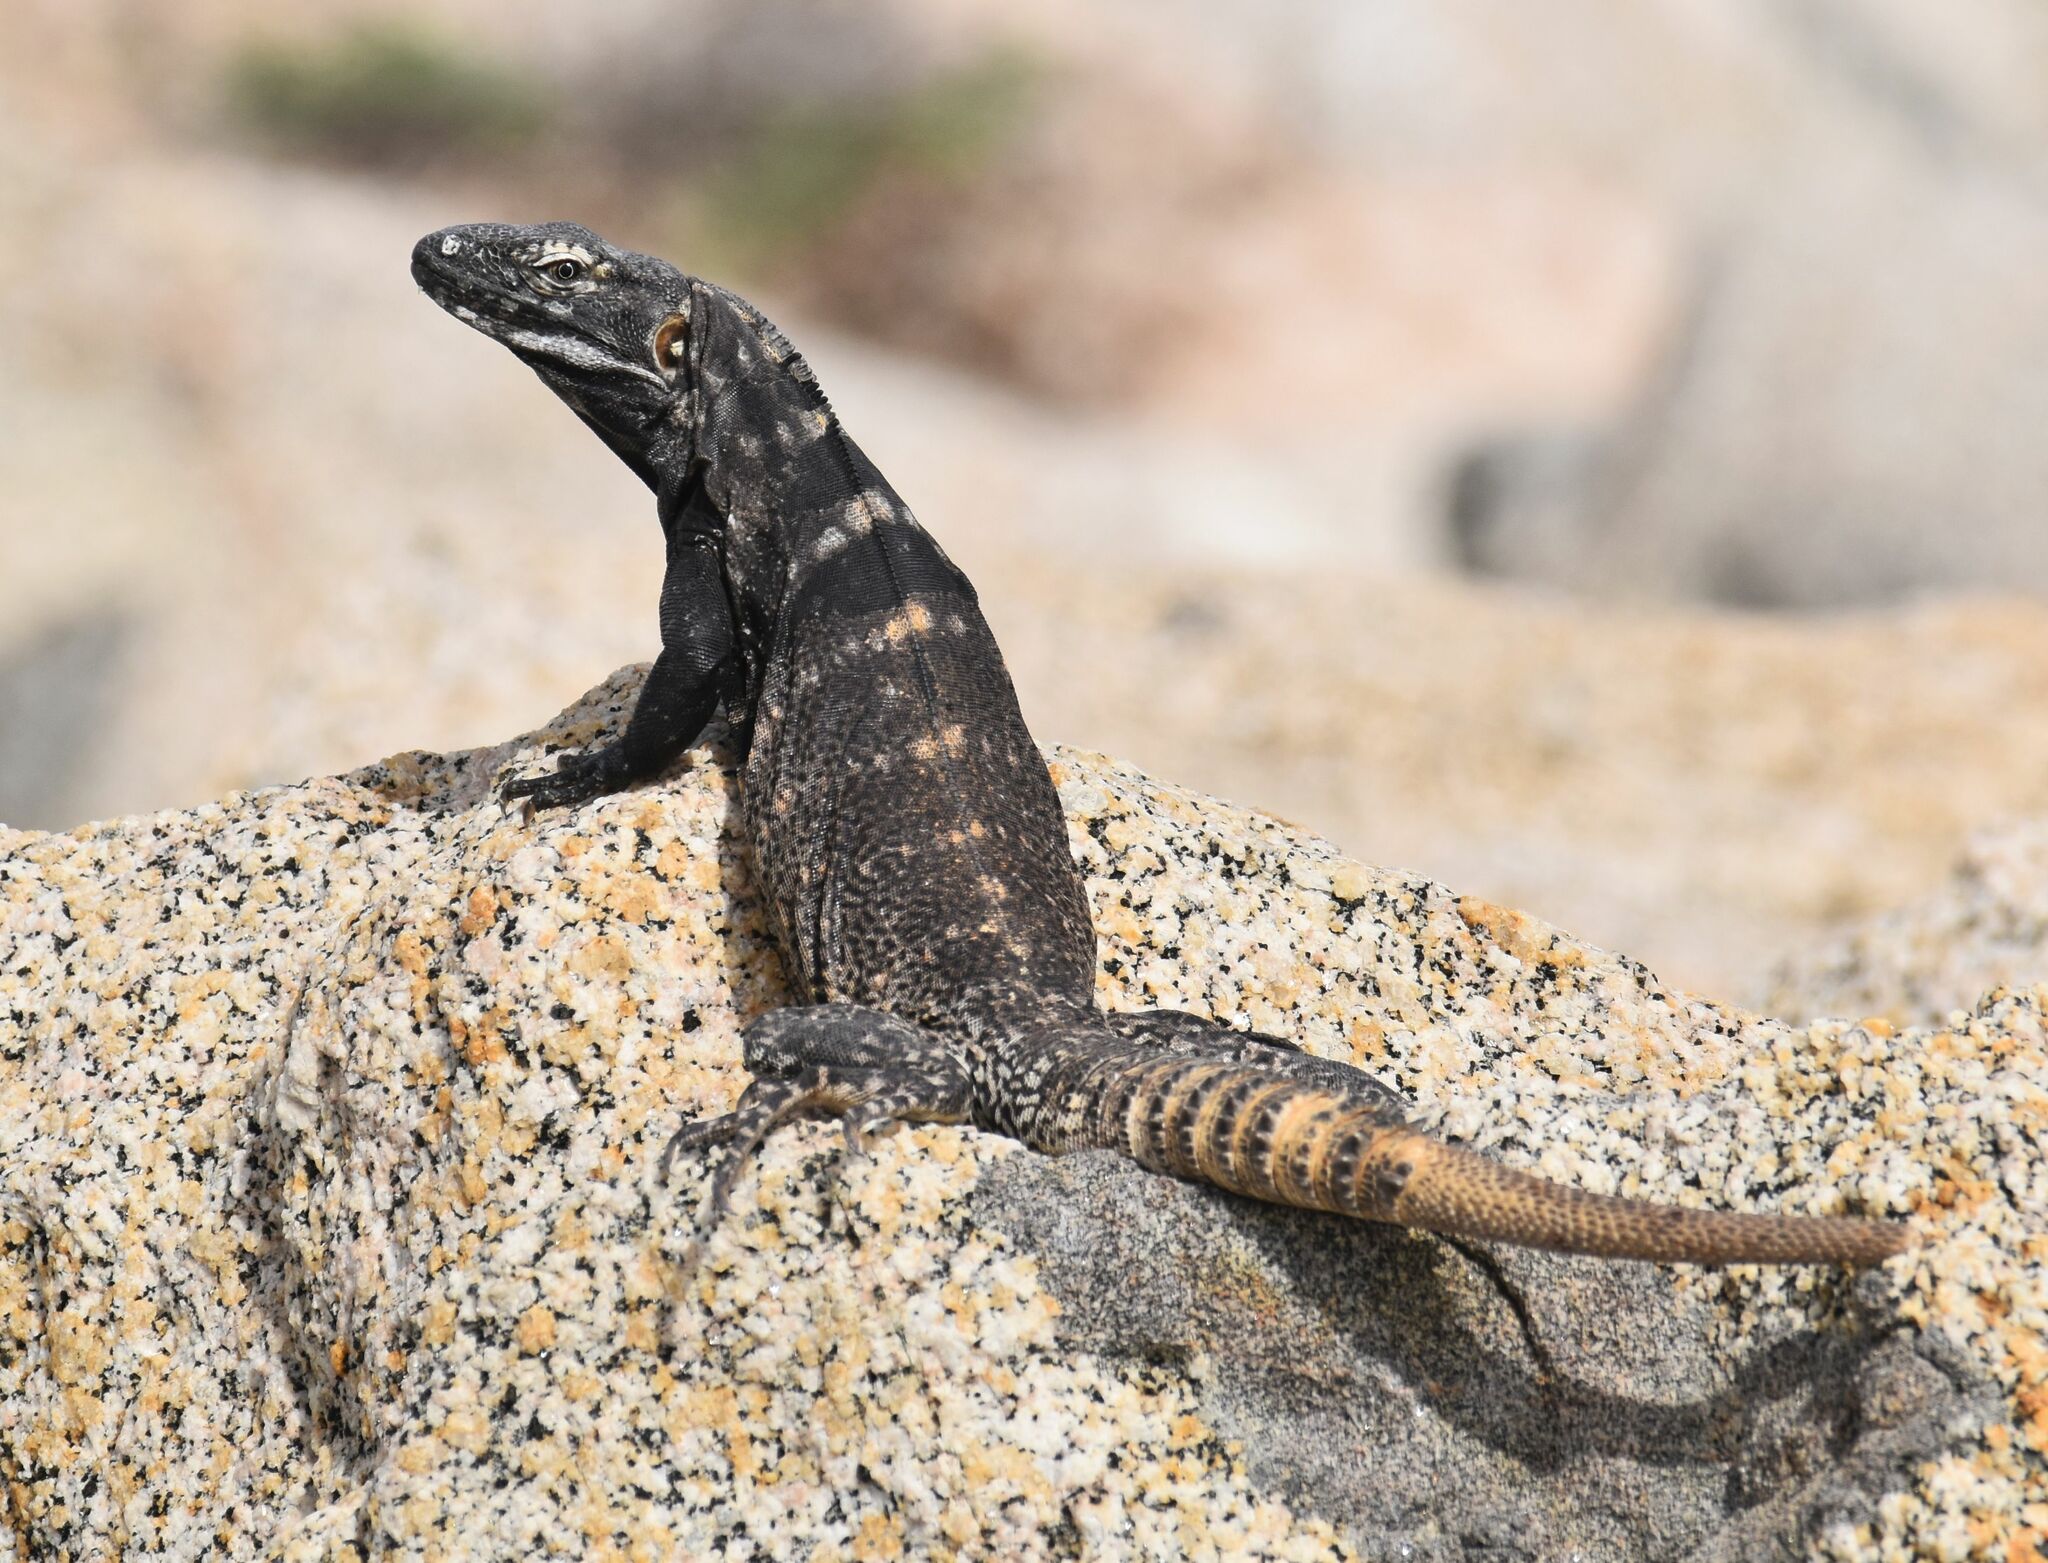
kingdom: Animalia
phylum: Chordata
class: Squamata
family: Iguanidae
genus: Ctenosaura
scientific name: Ctenosaura hemilopha
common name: Baja california spiny- tailed iguana
